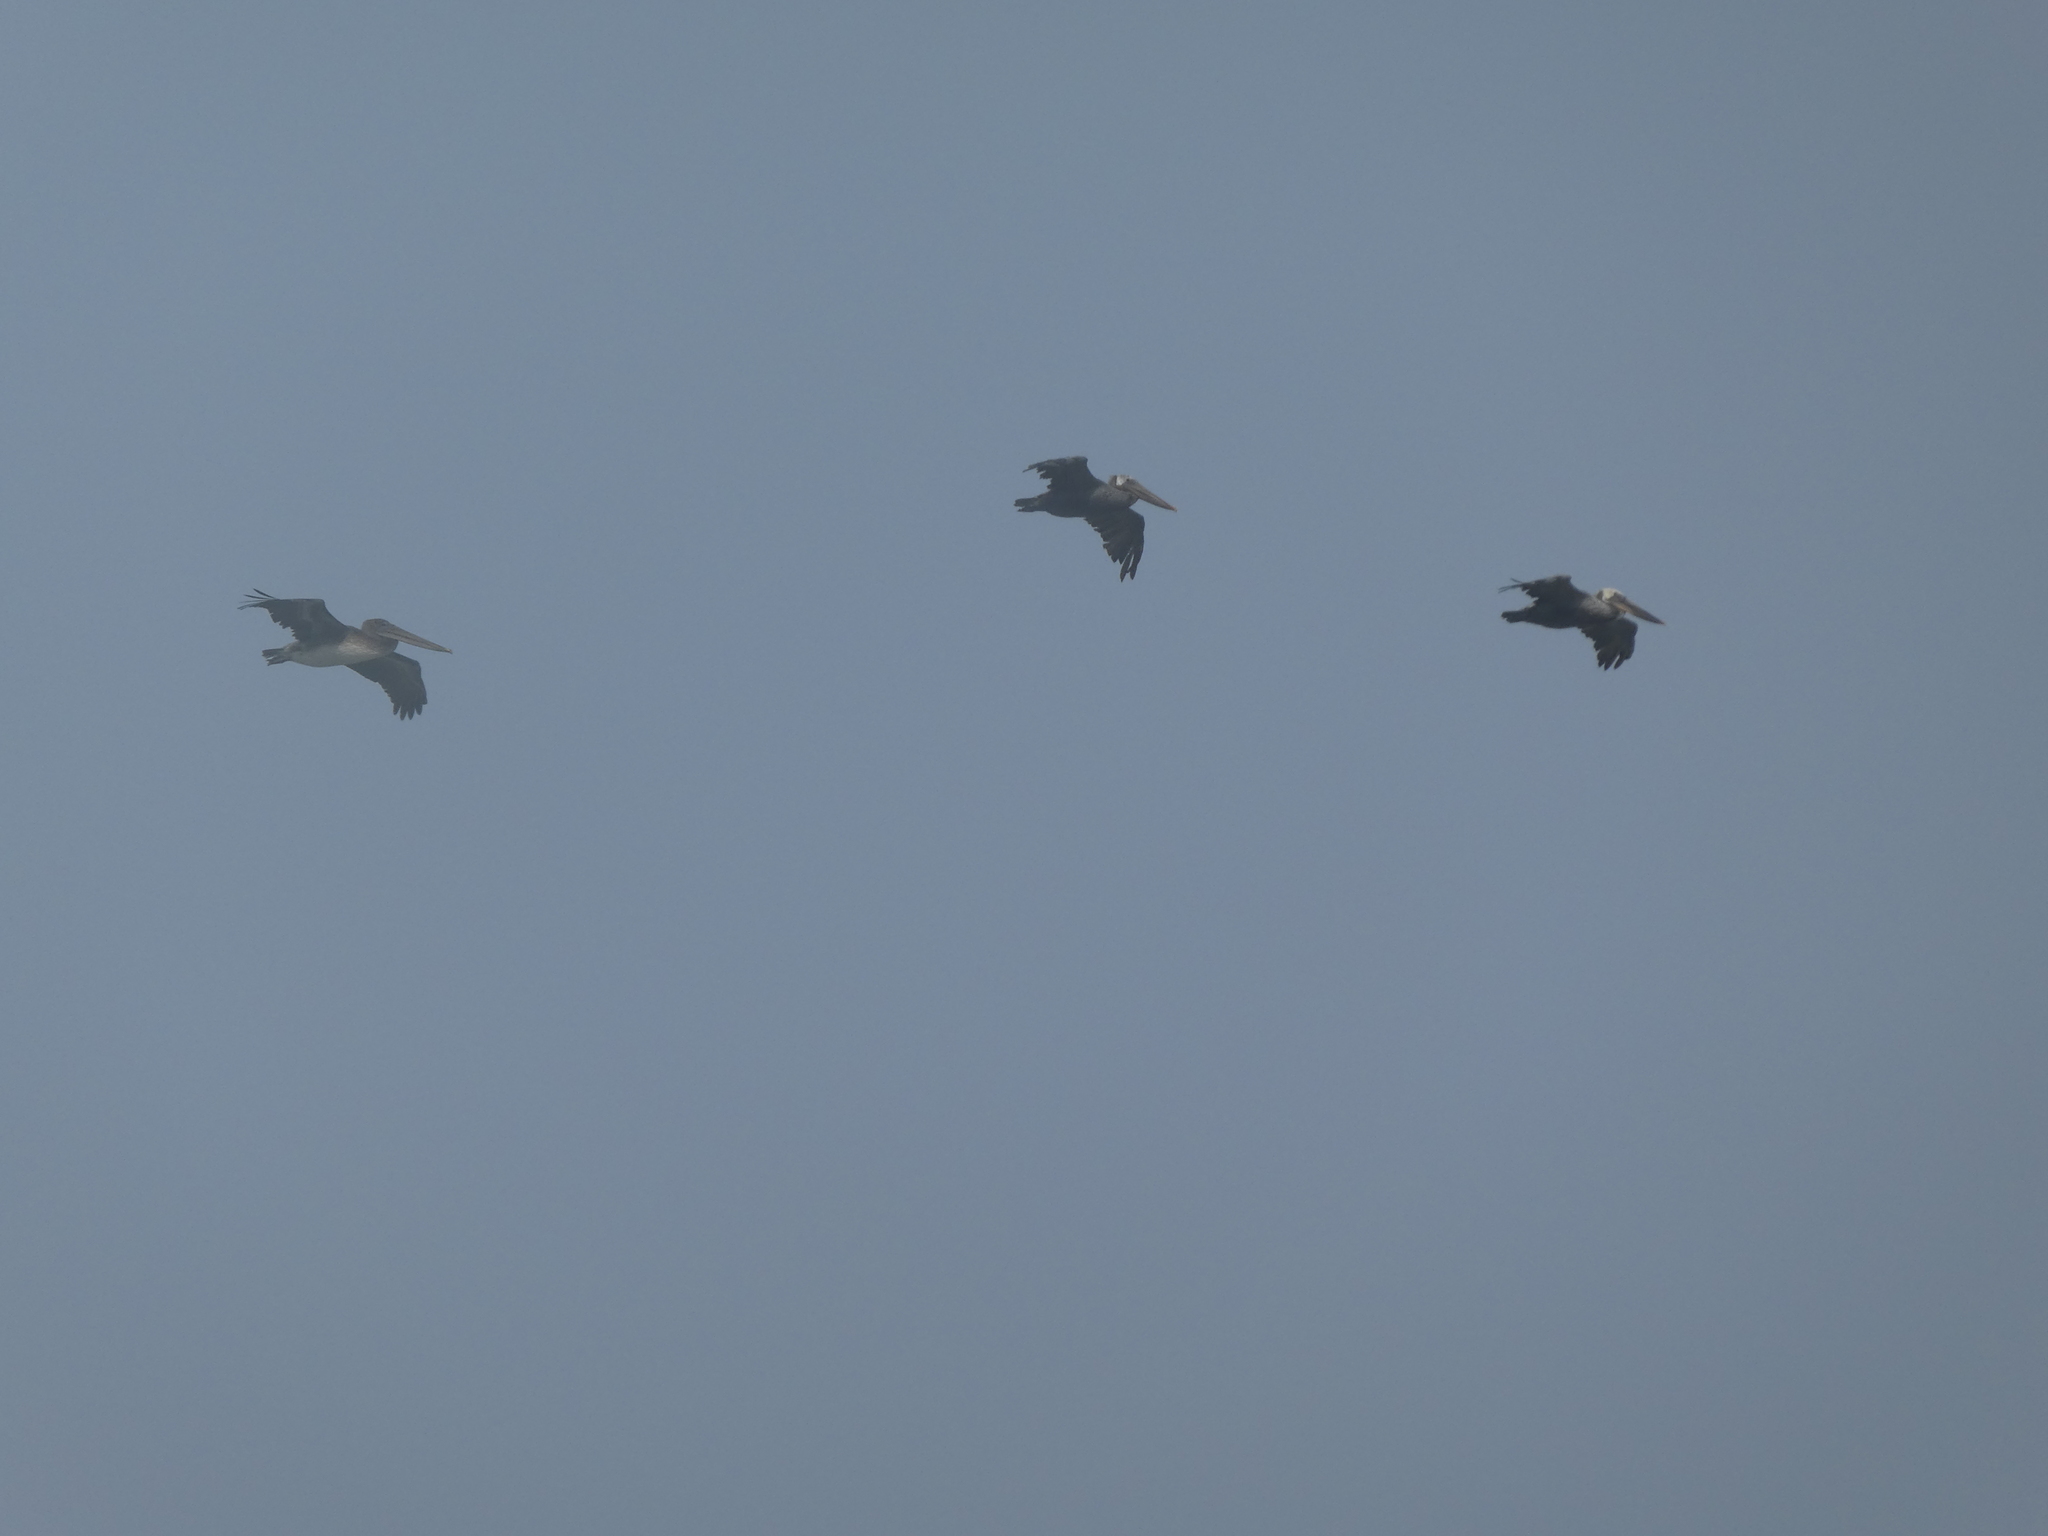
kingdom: Animalia
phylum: Chordata
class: Aves
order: Pelecaniformes
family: Pelecanidae
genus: Pelecanus
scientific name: Pelecanus occidentalis
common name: Brown pelican
